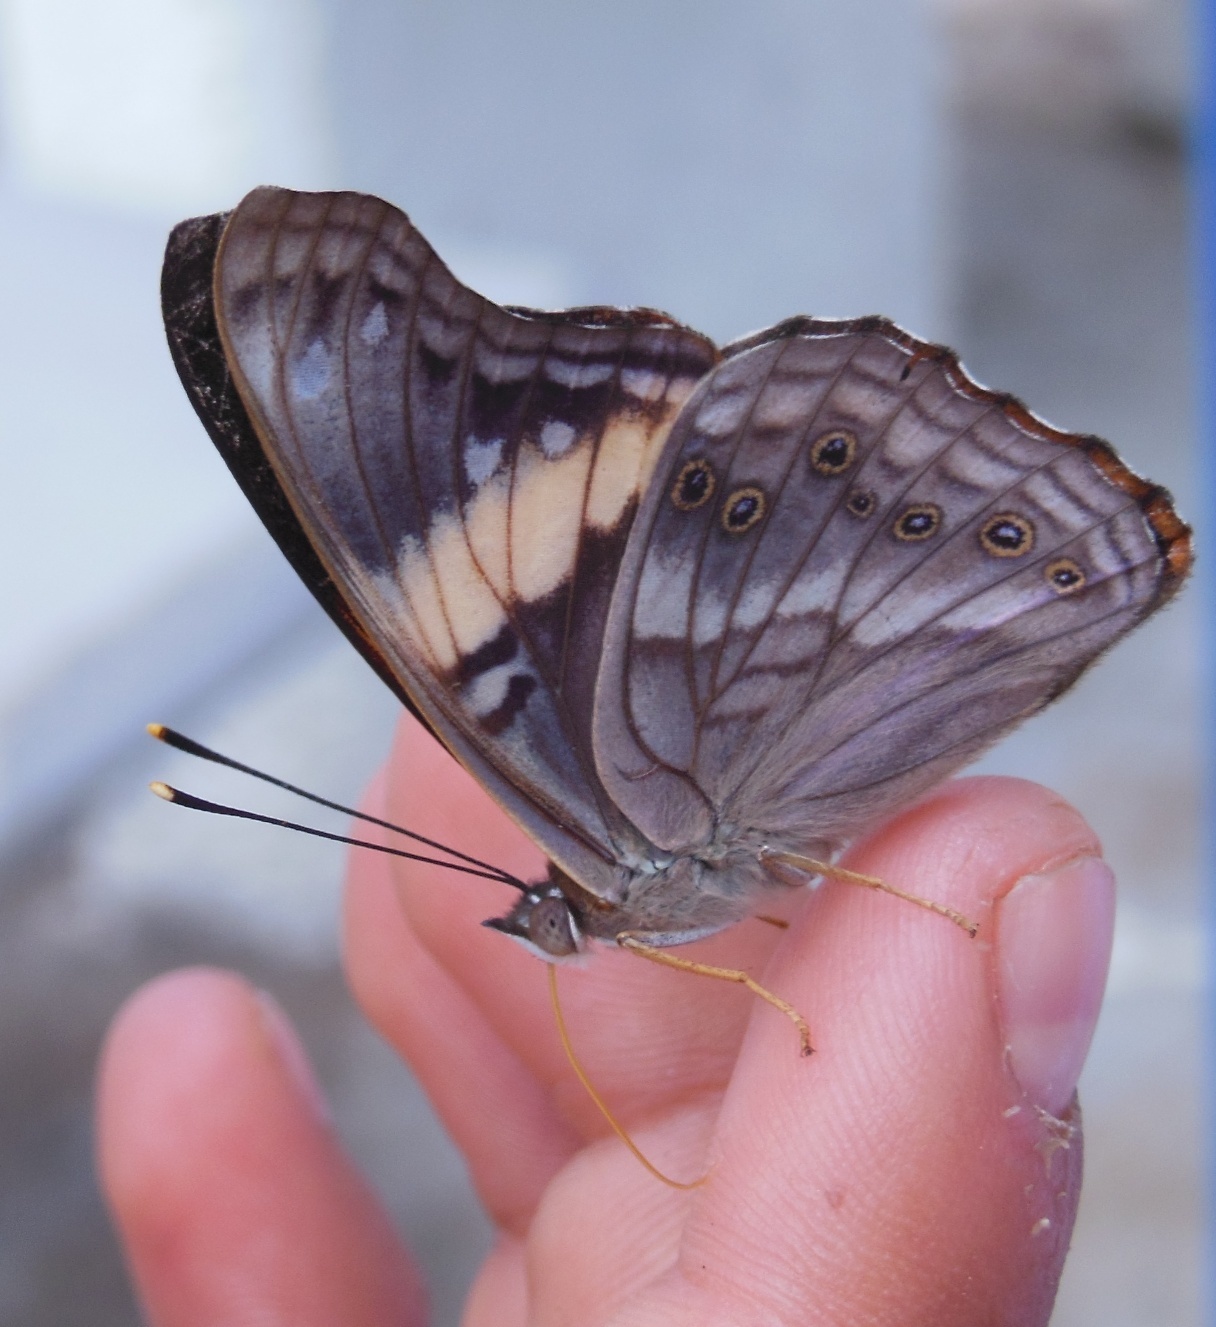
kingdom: Animalia
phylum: Arthropoda
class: Insecta
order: Lepidoptera
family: Nymphalidae
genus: Asterocampa
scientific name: Asterocampa idyja
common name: Dusky emperor
